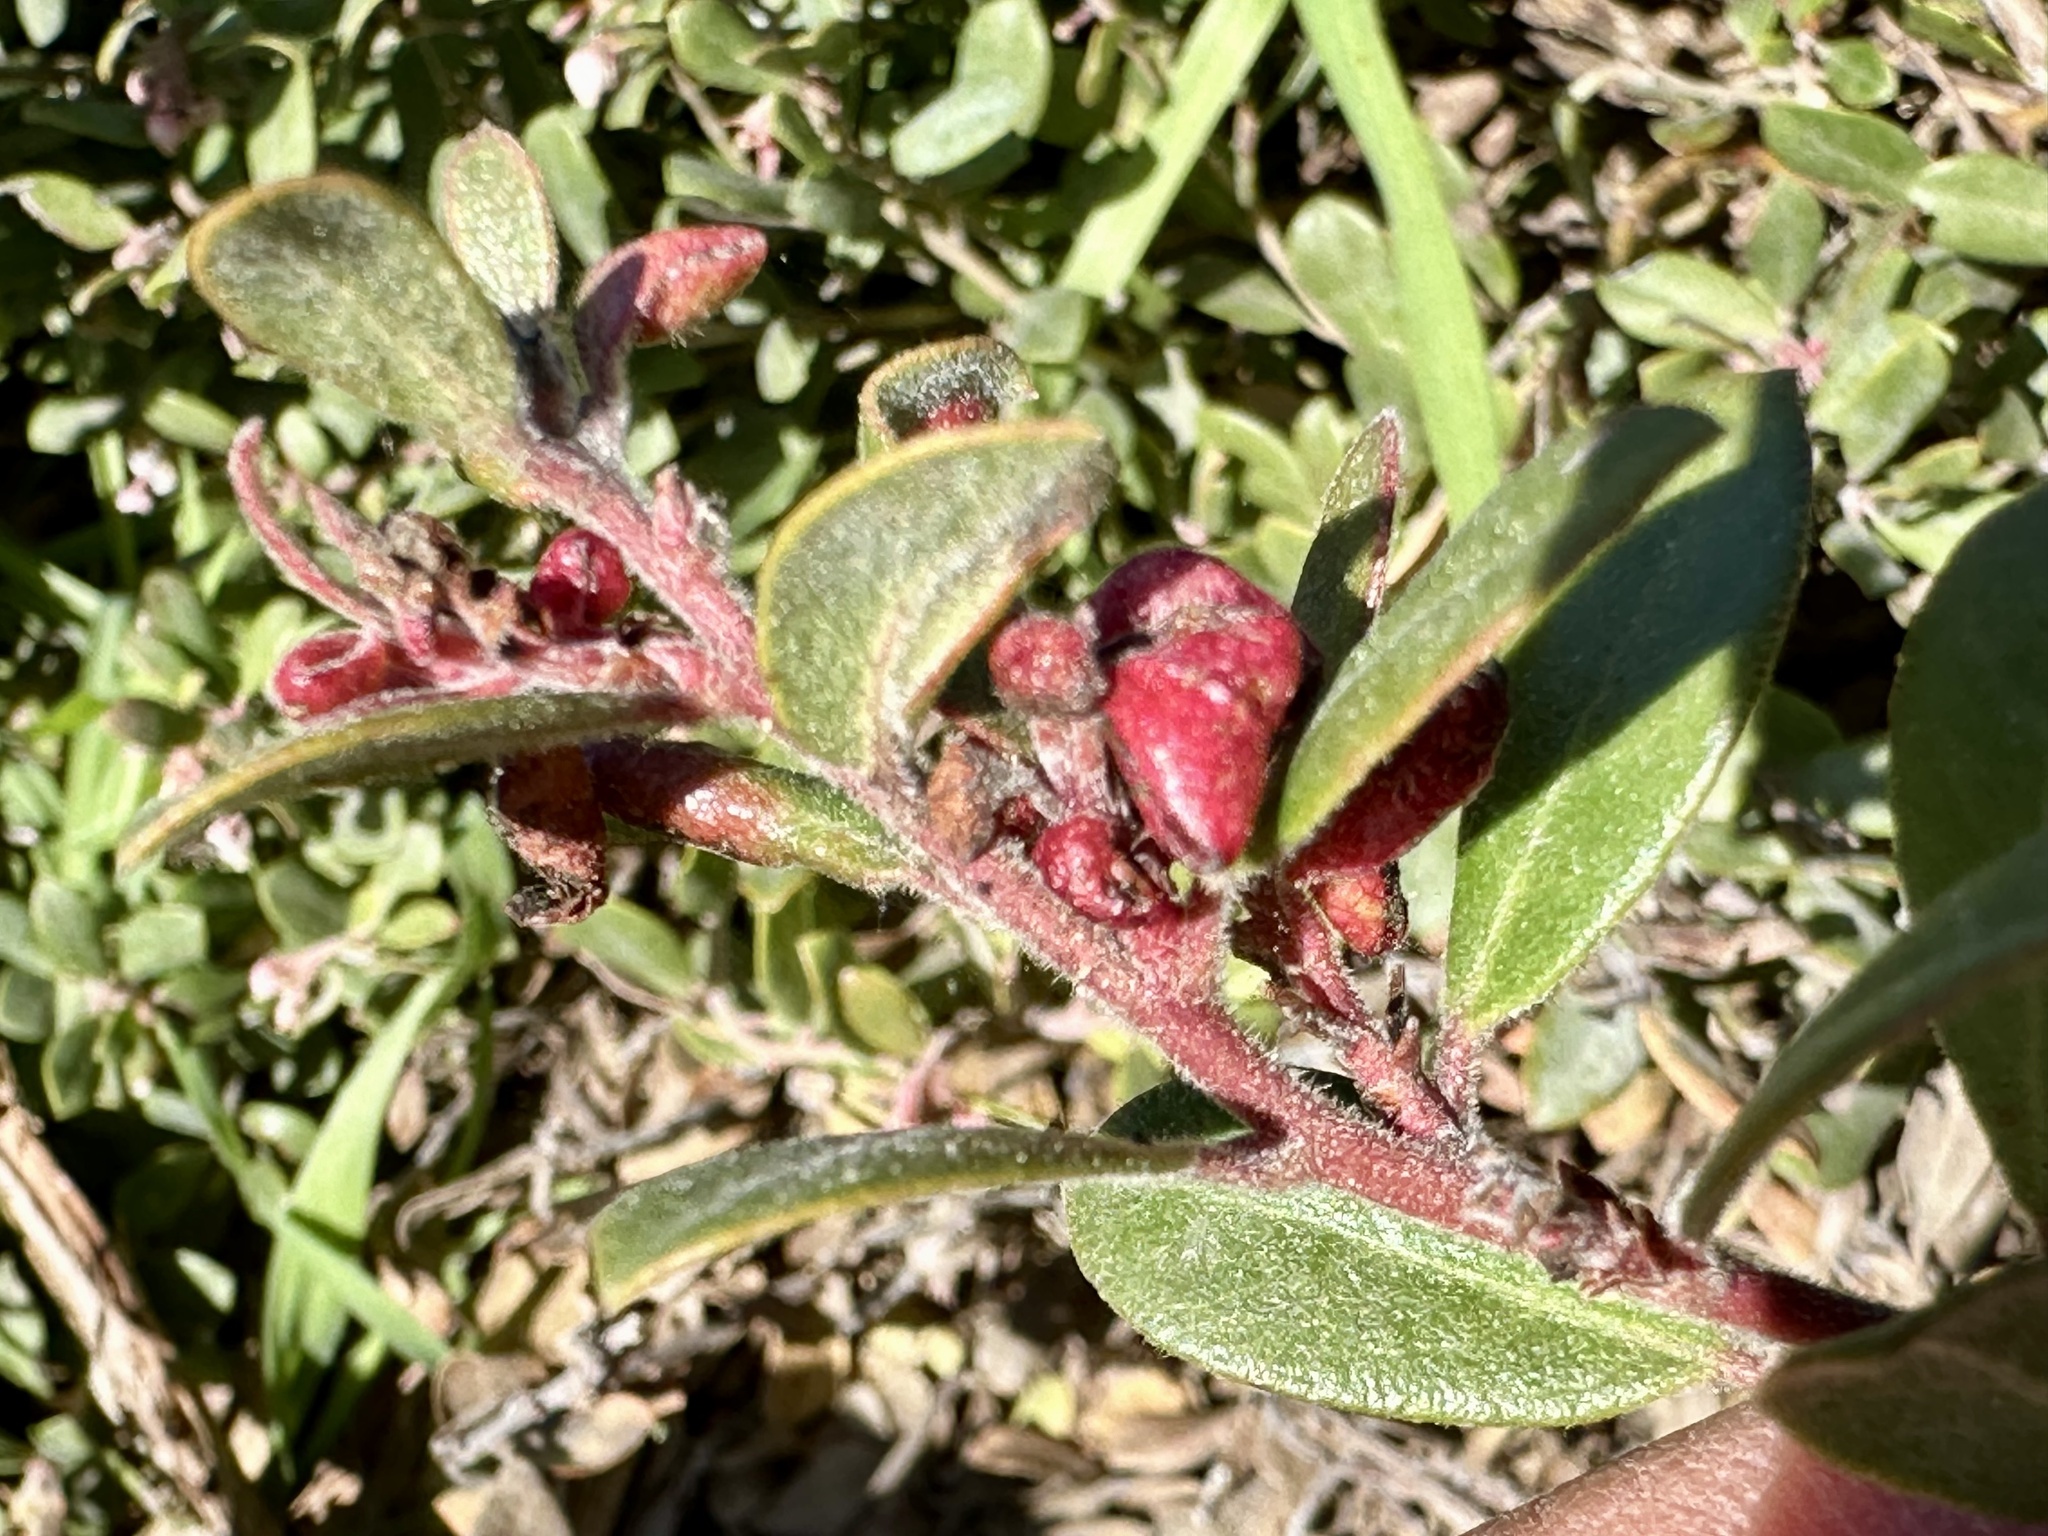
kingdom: Animalia
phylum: Arthropoda
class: Insecta
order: Hemiptera
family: Aphididae
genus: Tamalia
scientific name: Tamalia coweni
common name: Manzanita leafgall aphid
